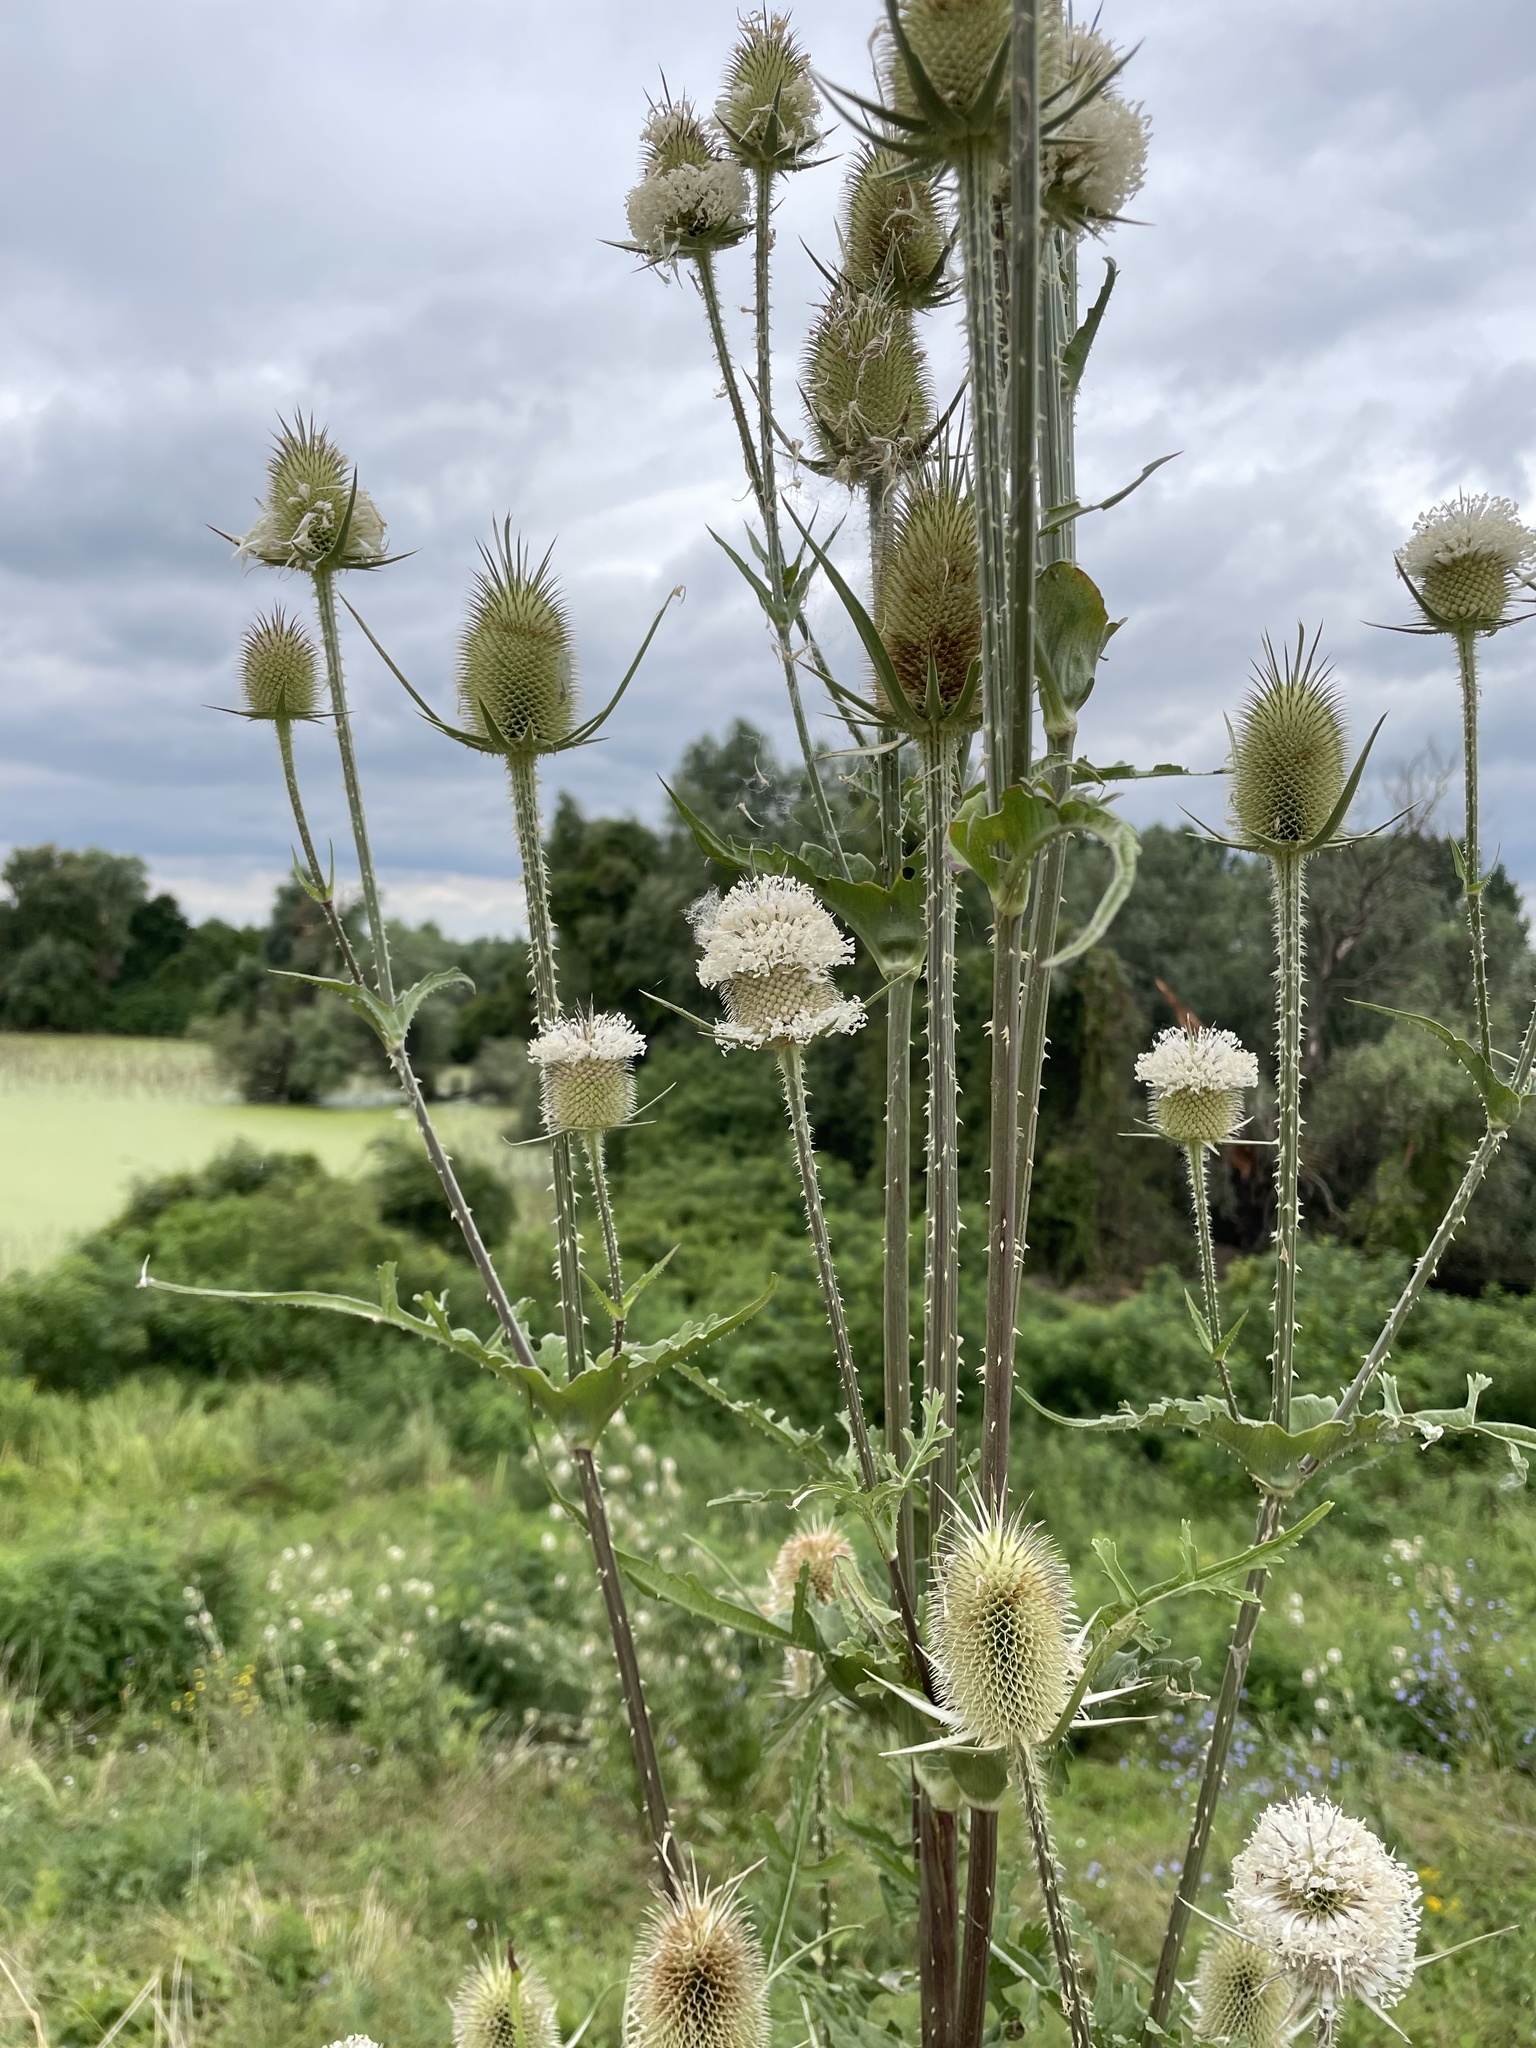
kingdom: Plantae
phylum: Tracheophyta
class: Magnoliopsida
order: Dipsacales
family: Caprifoliaceae
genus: Dipsacus
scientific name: Dipsacus laciniatus
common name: Cut-leaved teasel
